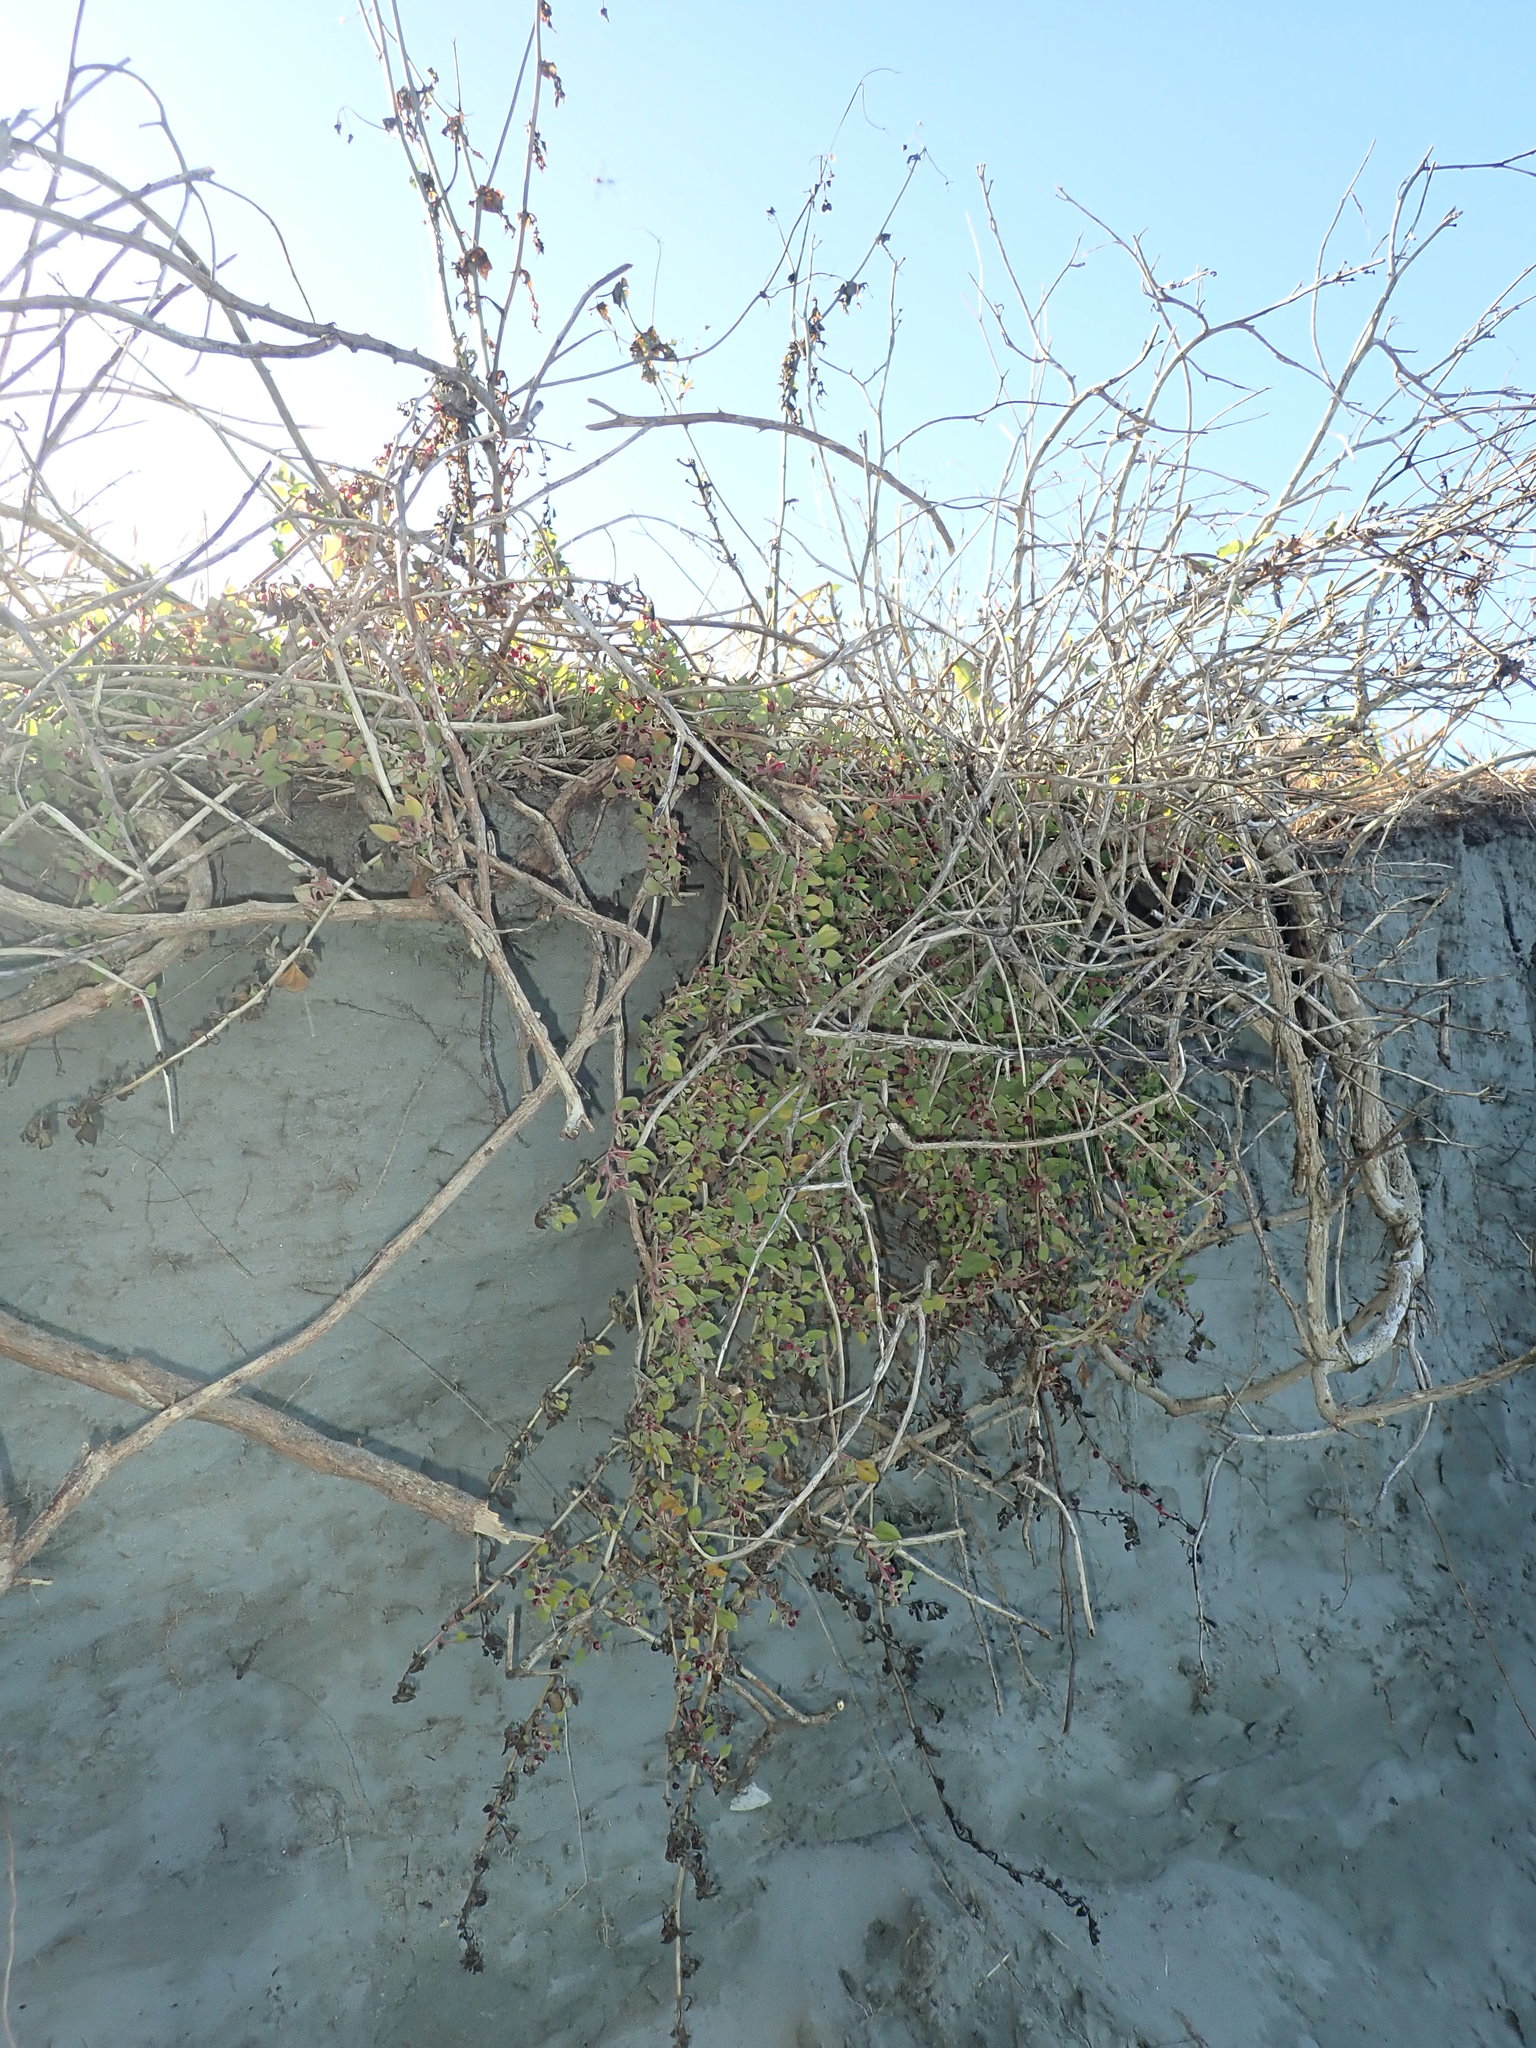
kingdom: Plantae
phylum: Tracheophyta
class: Magnoliopsida
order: Caryophyllales
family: Aizoaceae
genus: Tetragonia
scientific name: Tetragonia implexicoma
